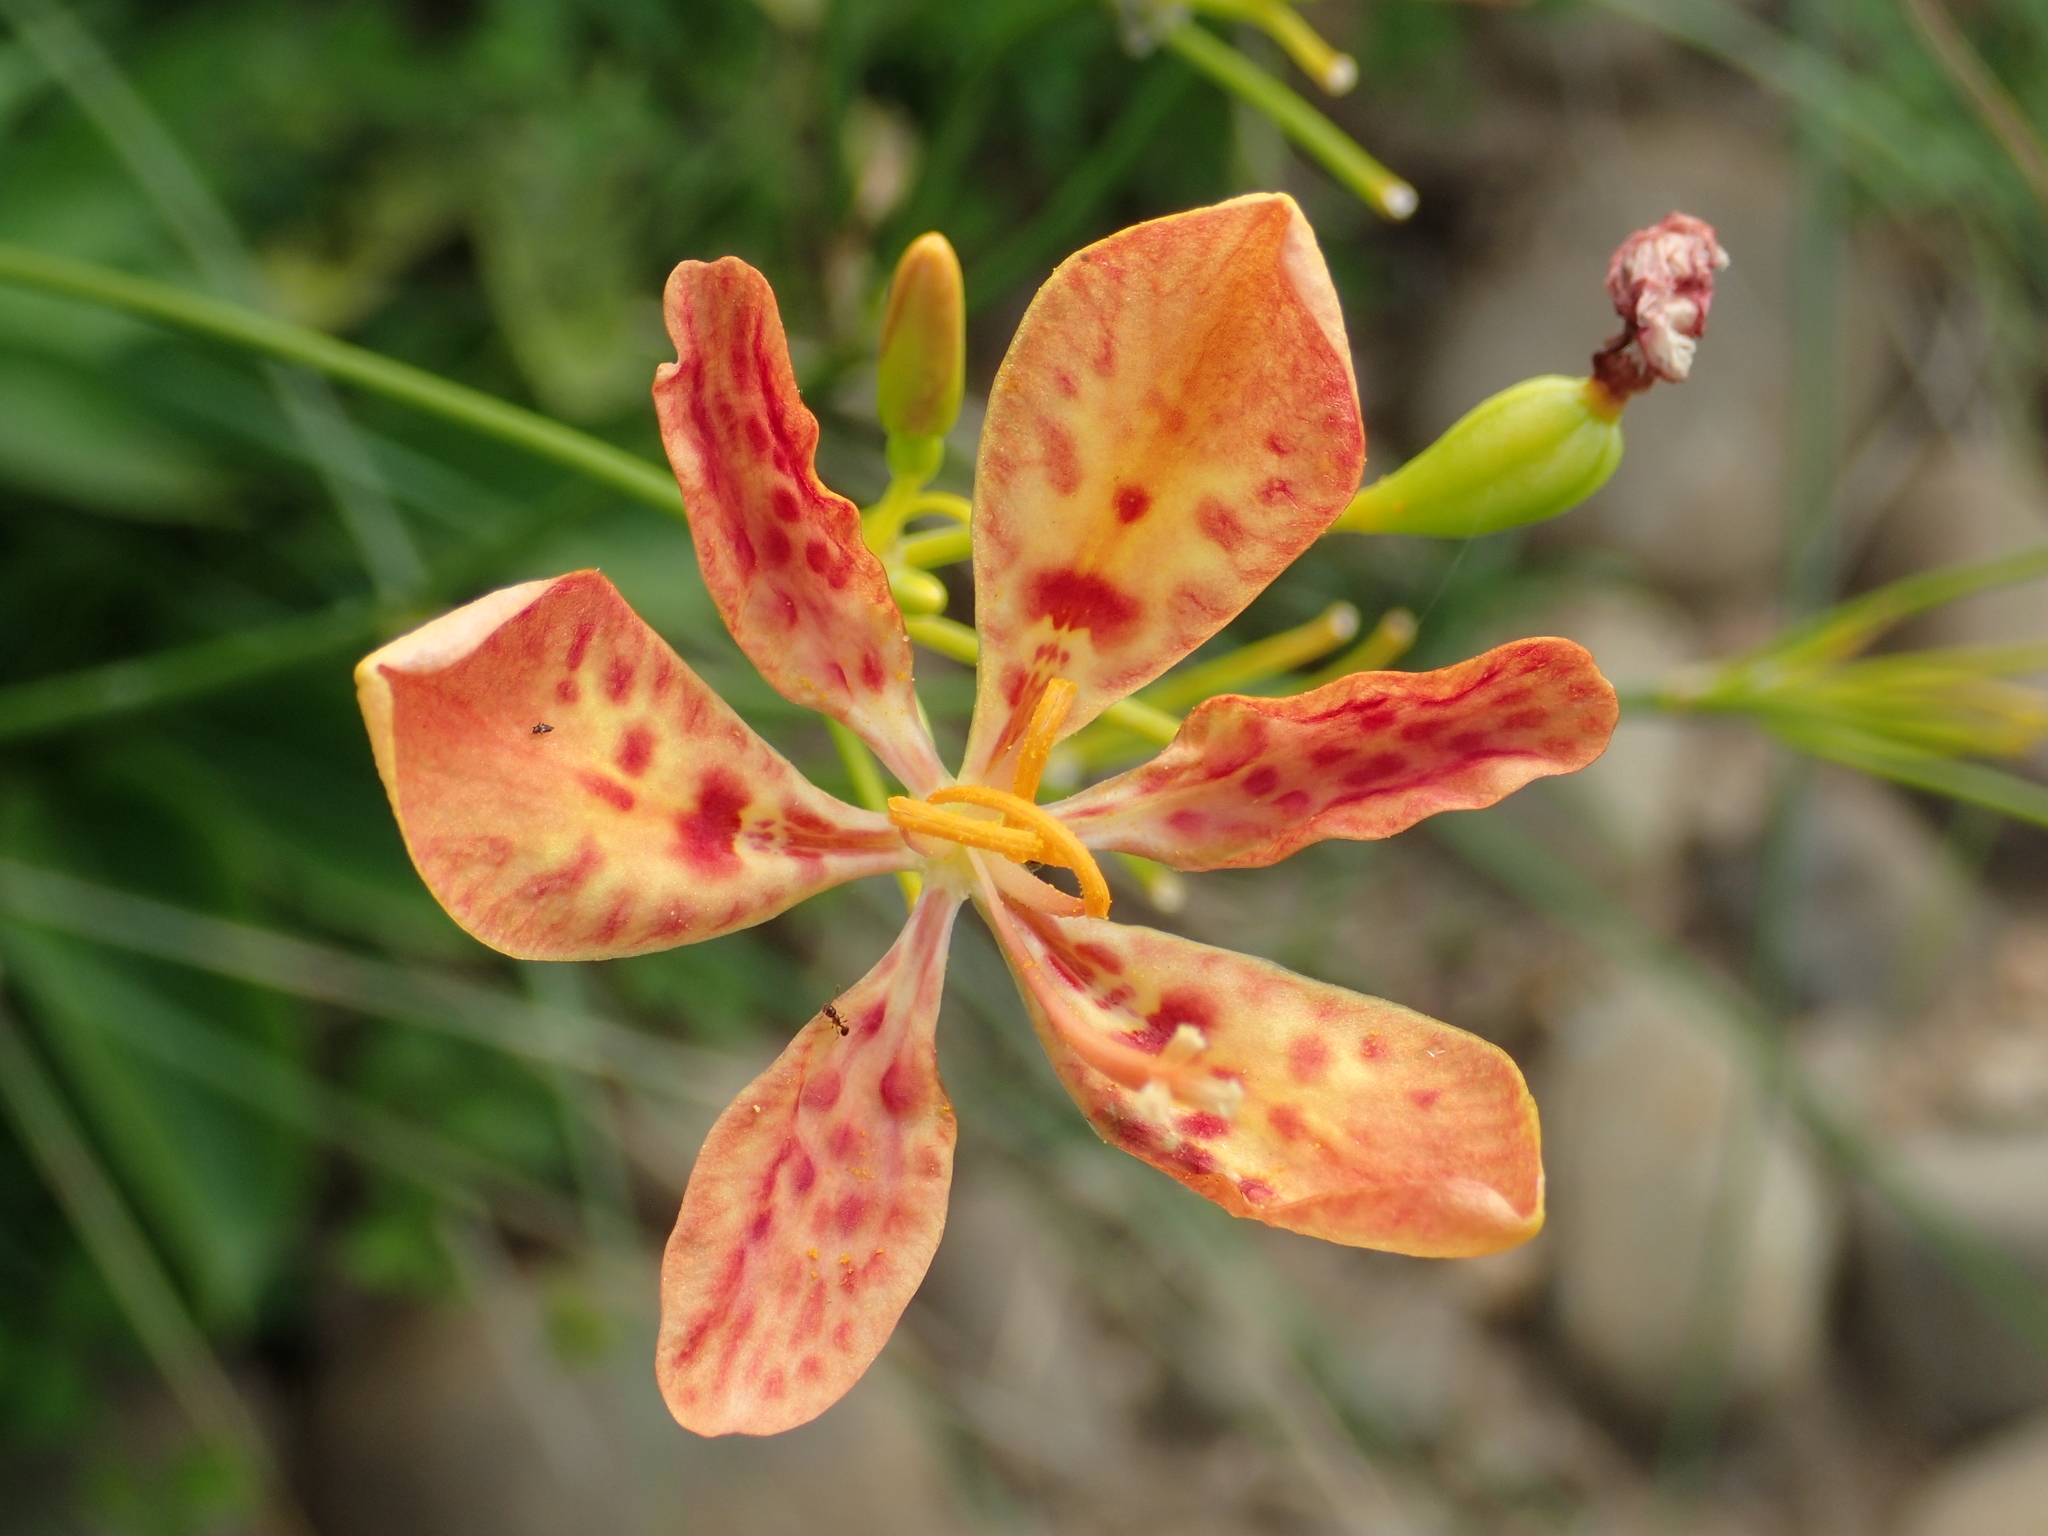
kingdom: Plantae
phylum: Tracheophyta
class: Liliopsida
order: Asparagales
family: Iridaceae
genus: Iris
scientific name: Iris domestica
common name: Belamcanda
